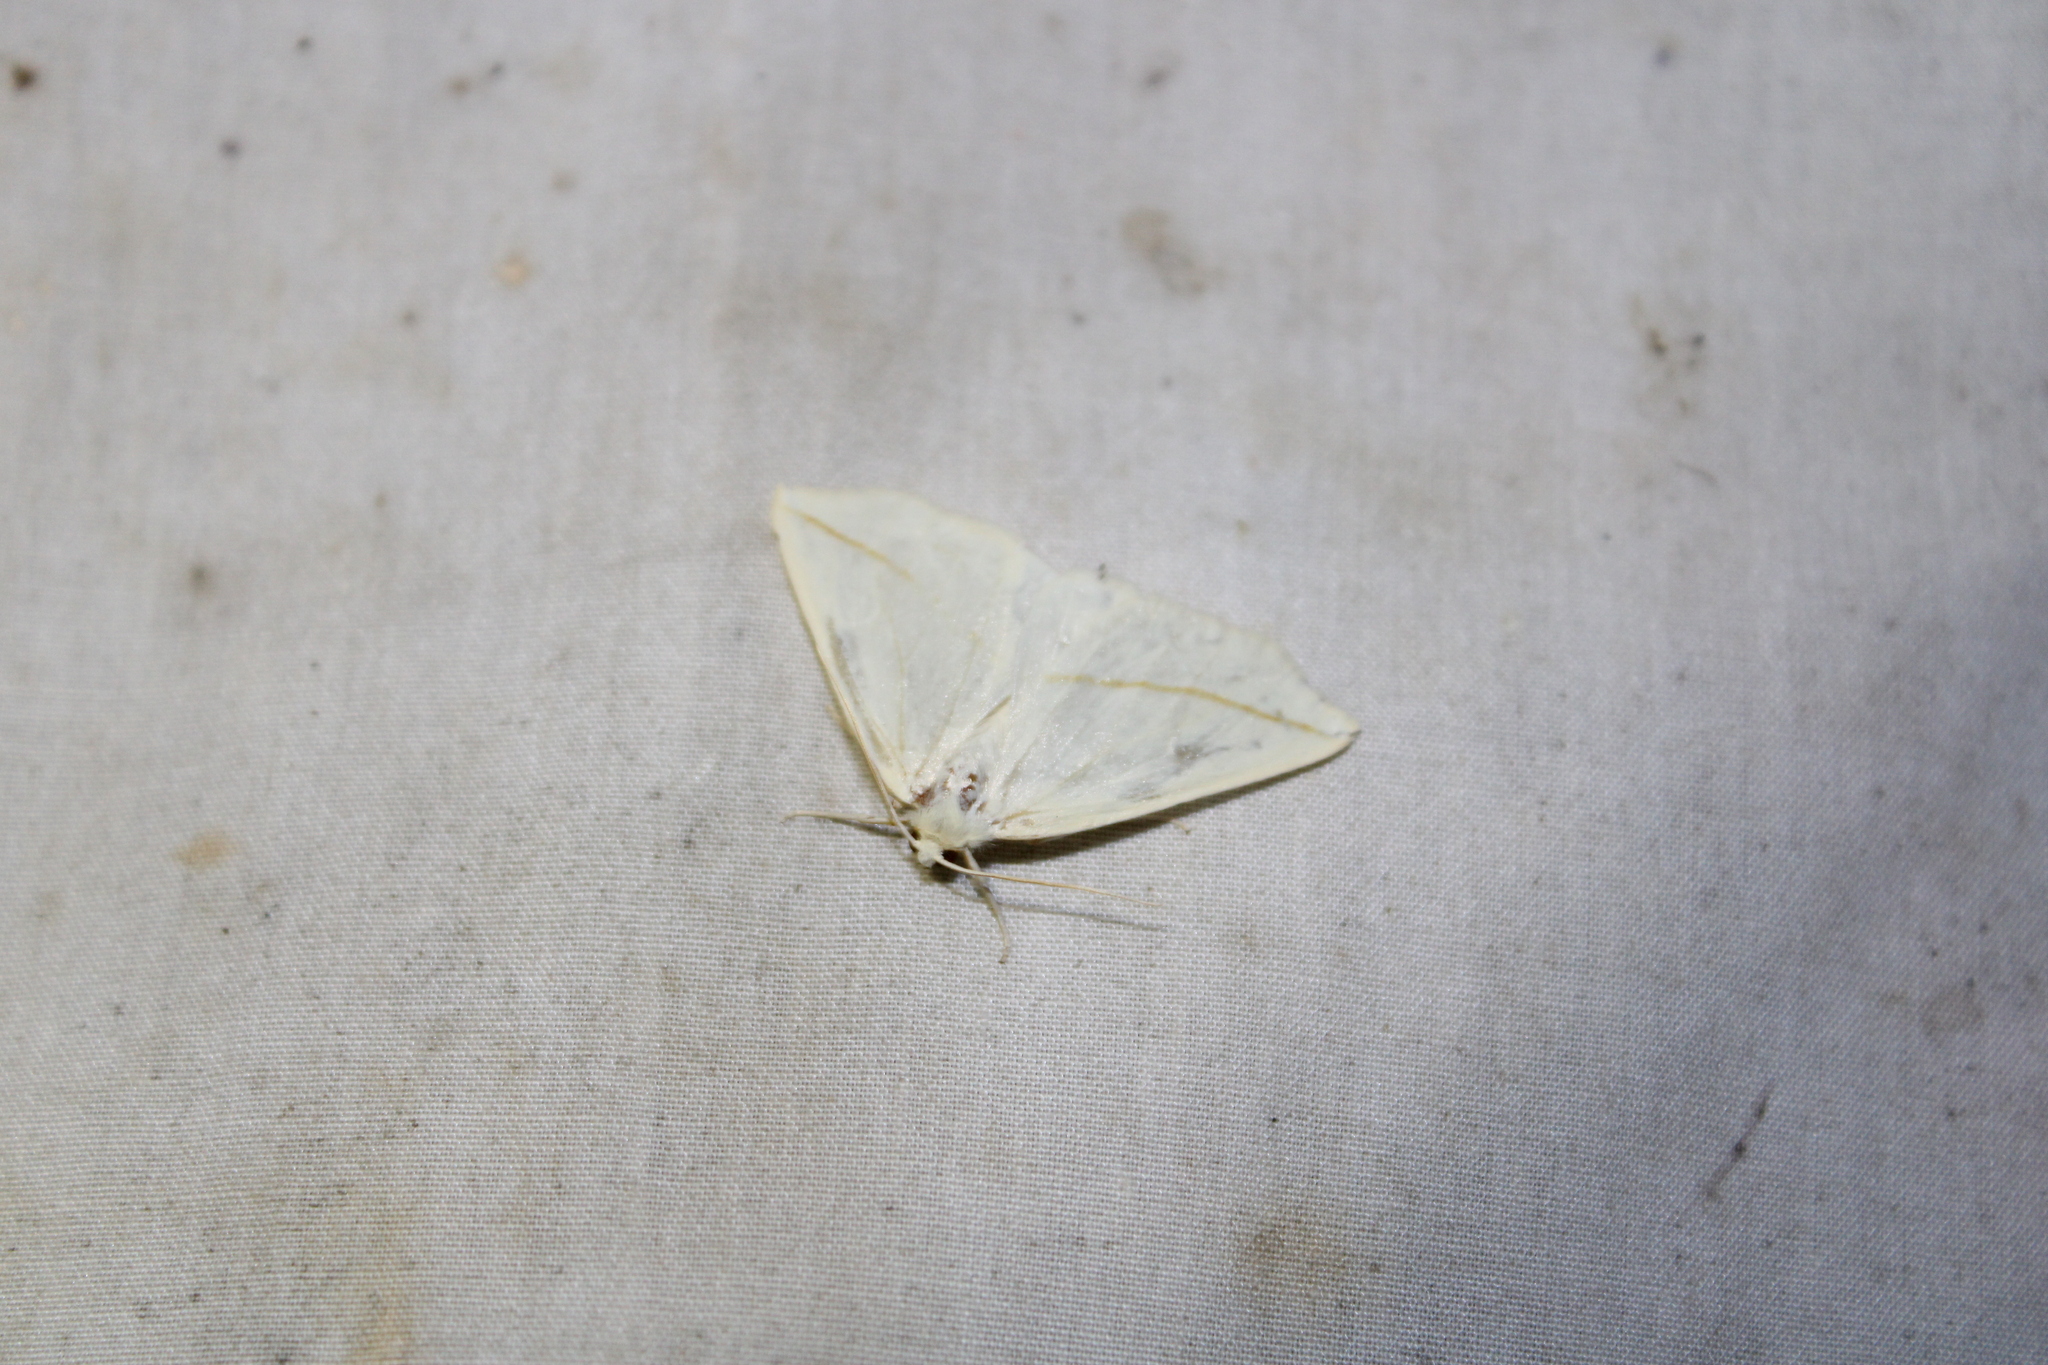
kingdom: Animalia
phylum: Arthropoda
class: Insecta
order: Lepidoptera
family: Geometridae
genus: Tetracis
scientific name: Tetracis cachexiata
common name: White slant-line
